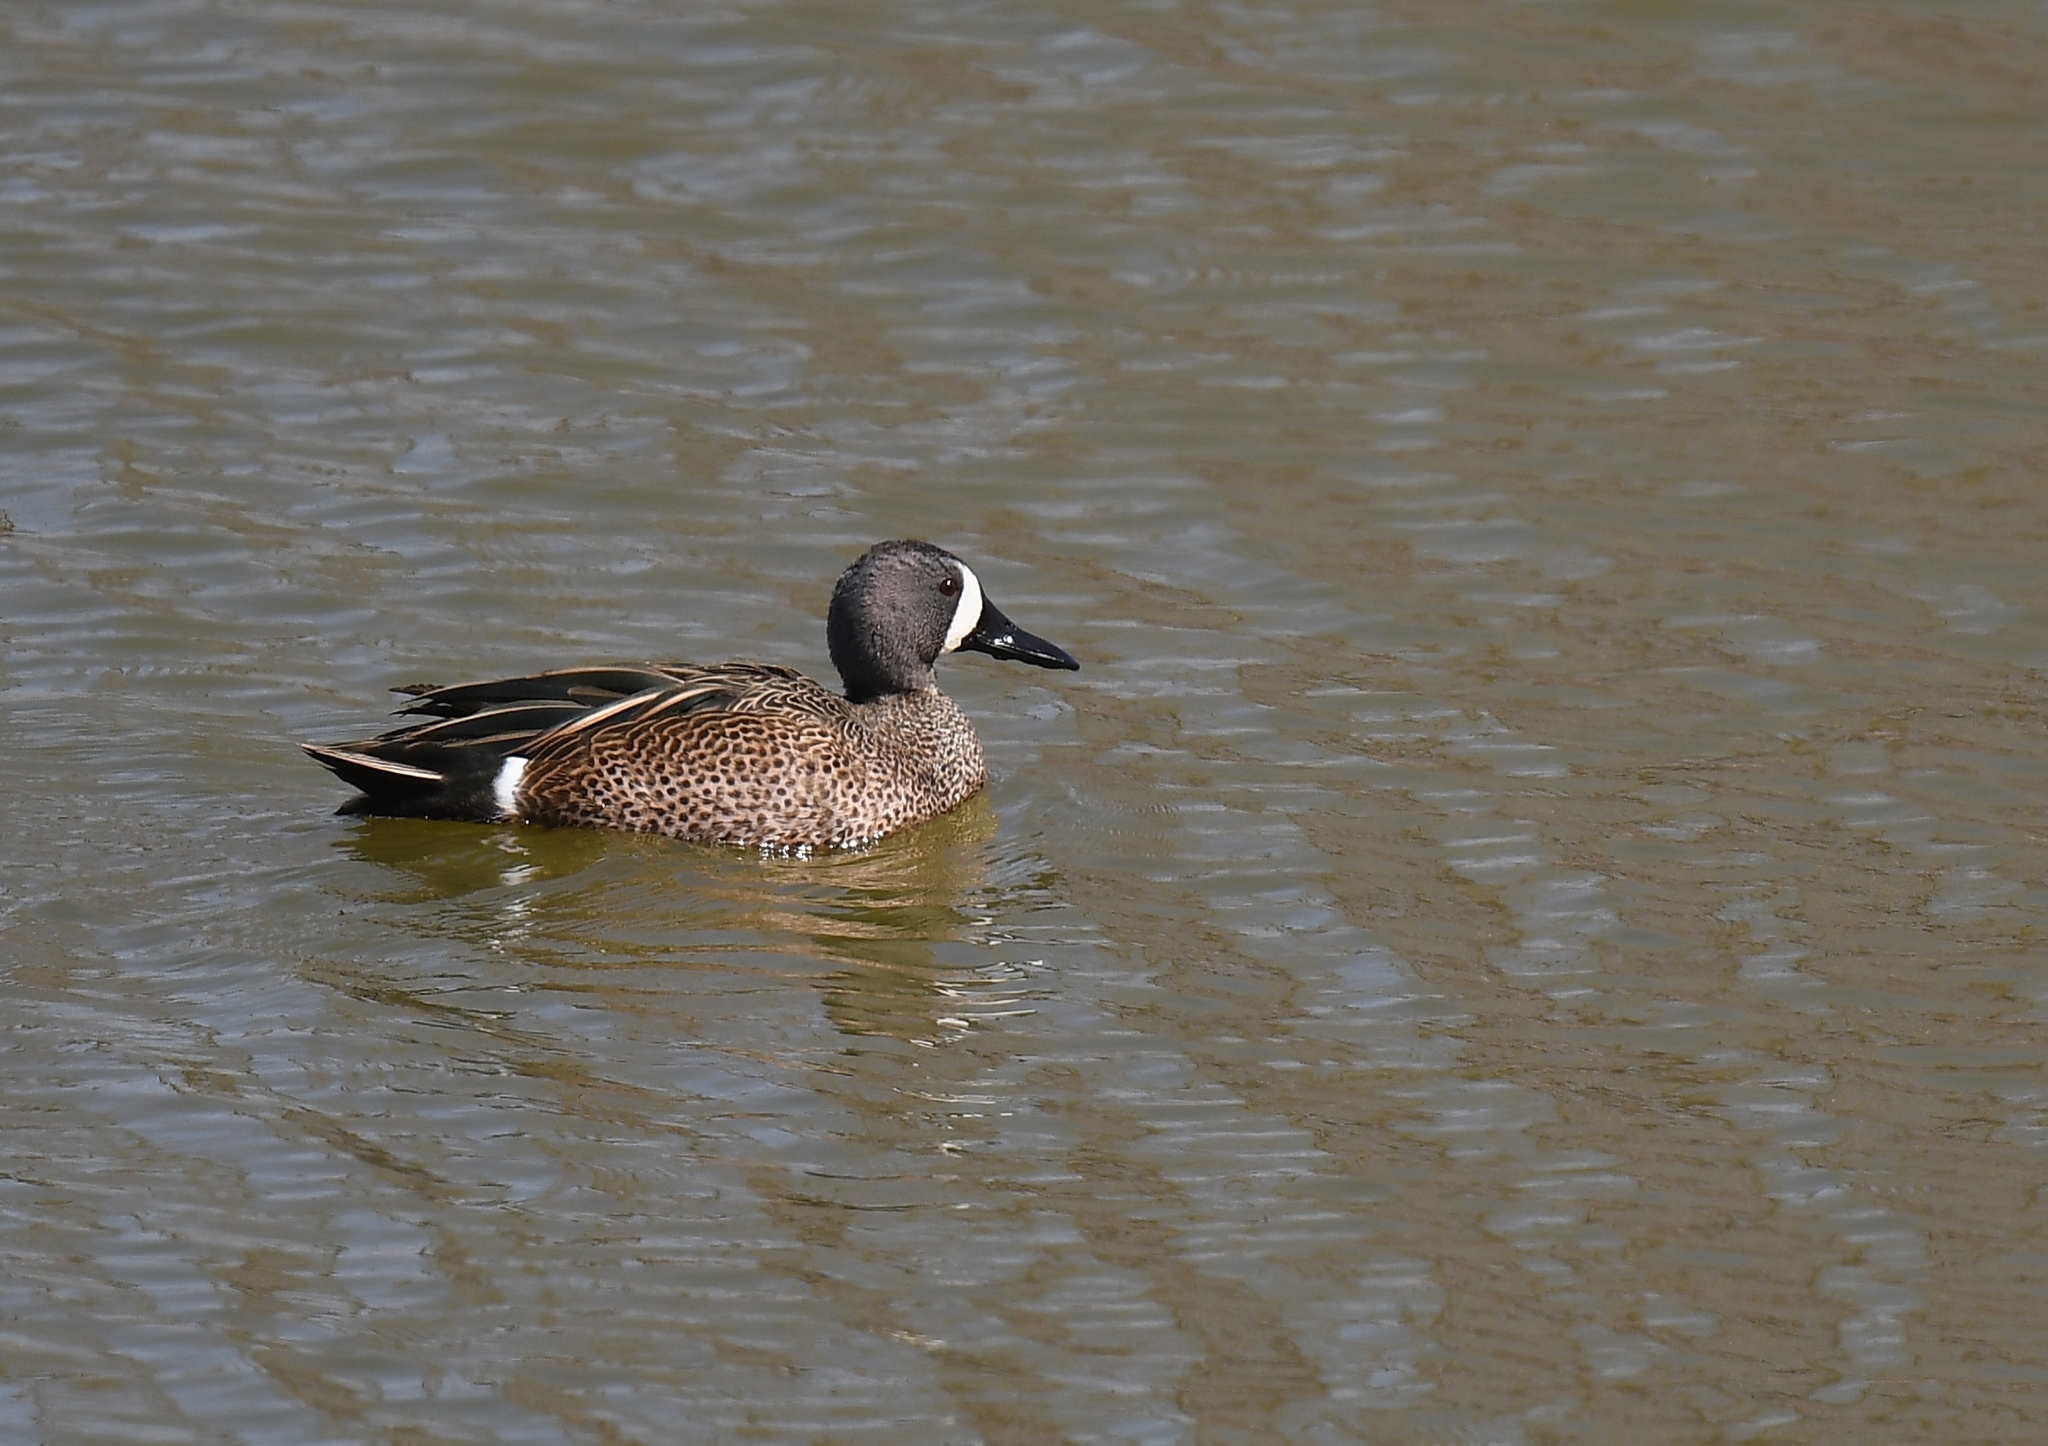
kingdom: Animalia
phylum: Chordata
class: Aves
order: Anseriformes
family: Anatidae
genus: Spatula
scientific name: Spatula discors
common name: Blue-winged teal
